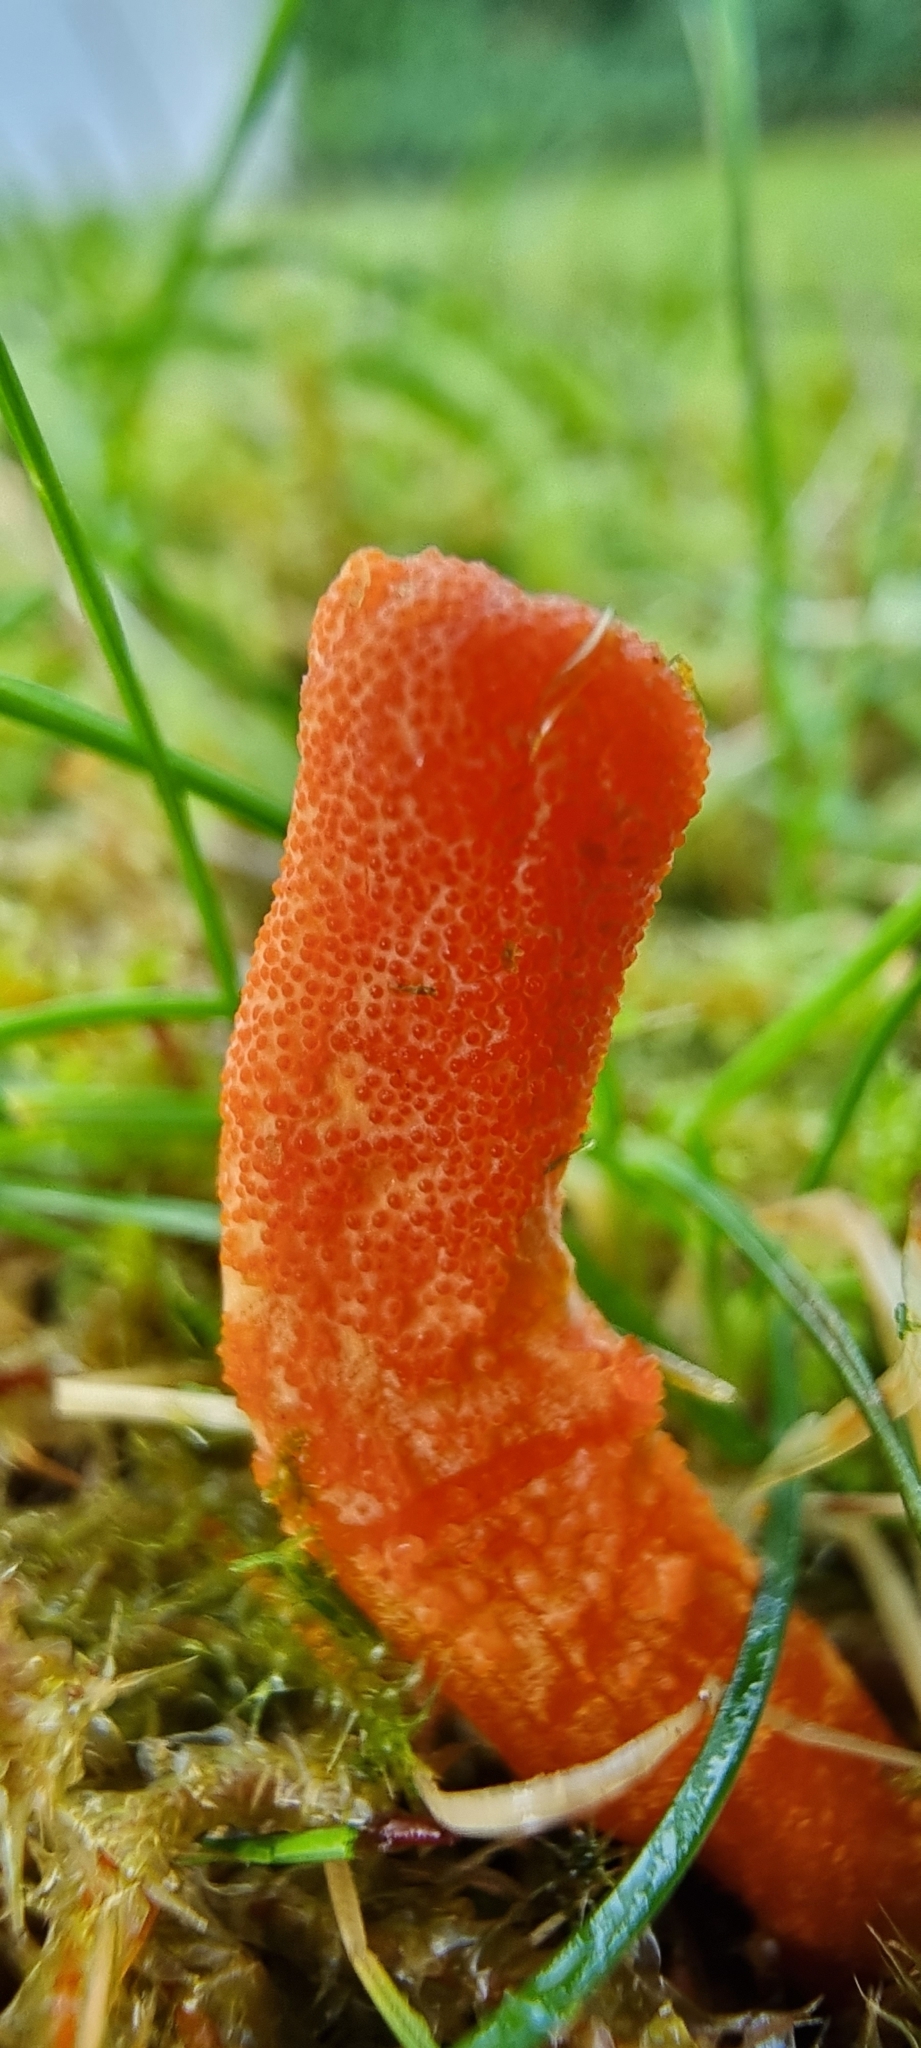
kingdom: Fungi
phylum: Ascomycota
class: Sordariomycetes
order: Hypocreales
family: Cordycipitaceae
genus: Cordyceps
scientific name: Cordyceps militaris
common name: Scarlet caterpillar fungus
